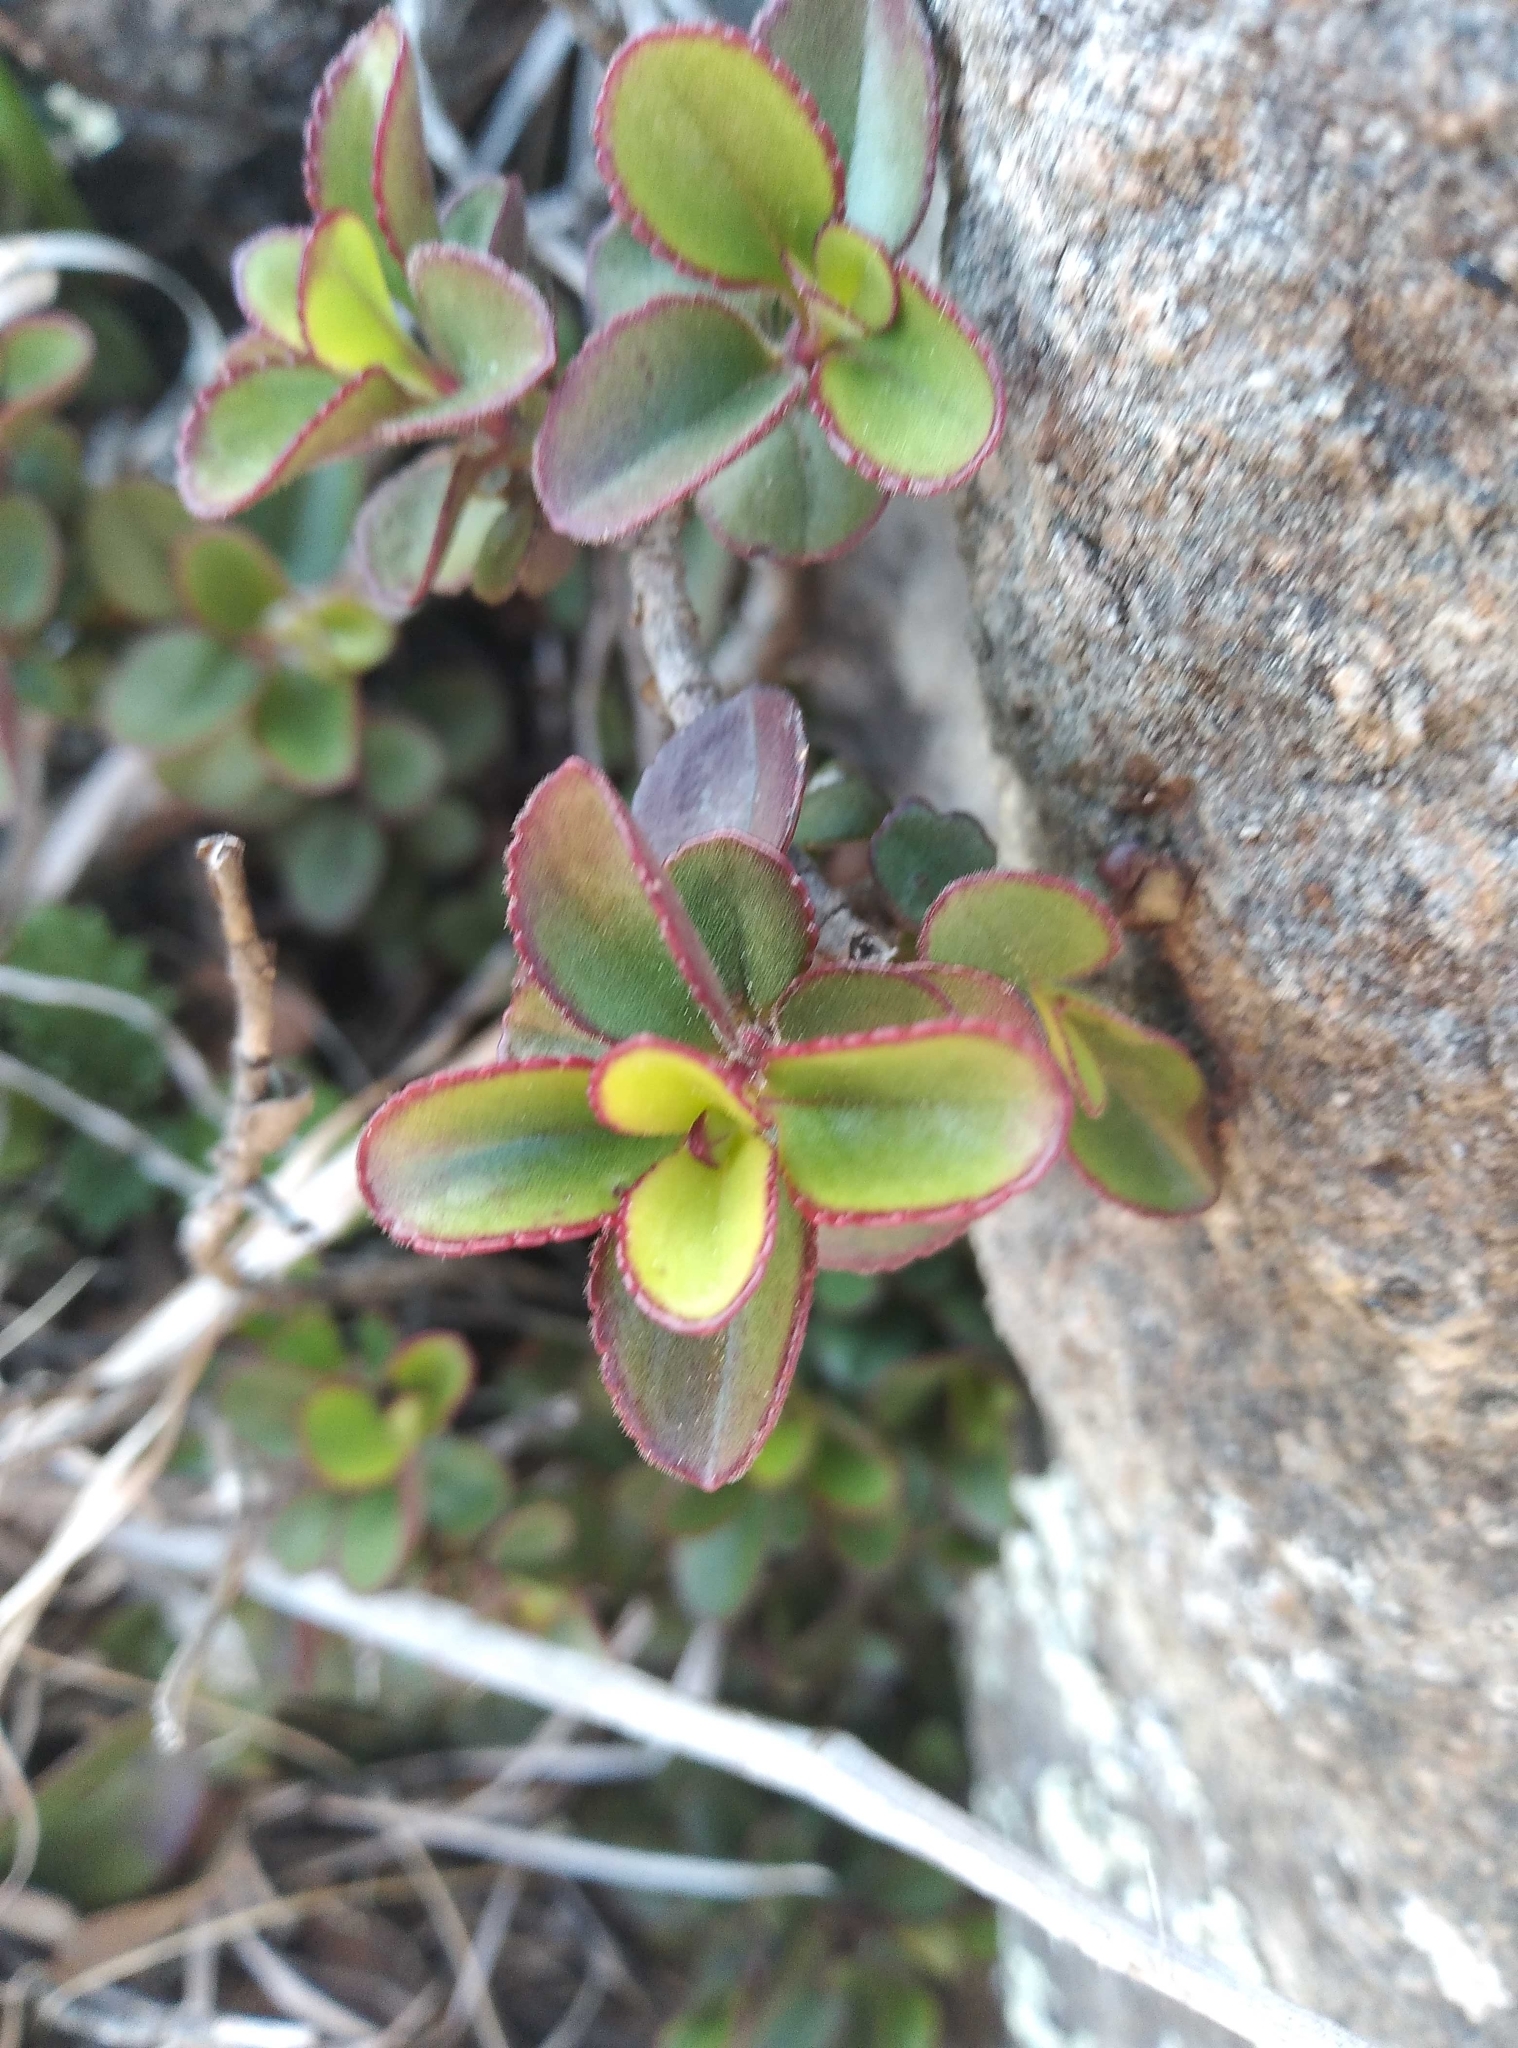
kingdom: Plantae
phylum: Tracheophyta
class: Magnoliopsida
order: Lamiales
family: Plantaginaceae
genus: Veronica
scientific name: Veronica lavaudiana
